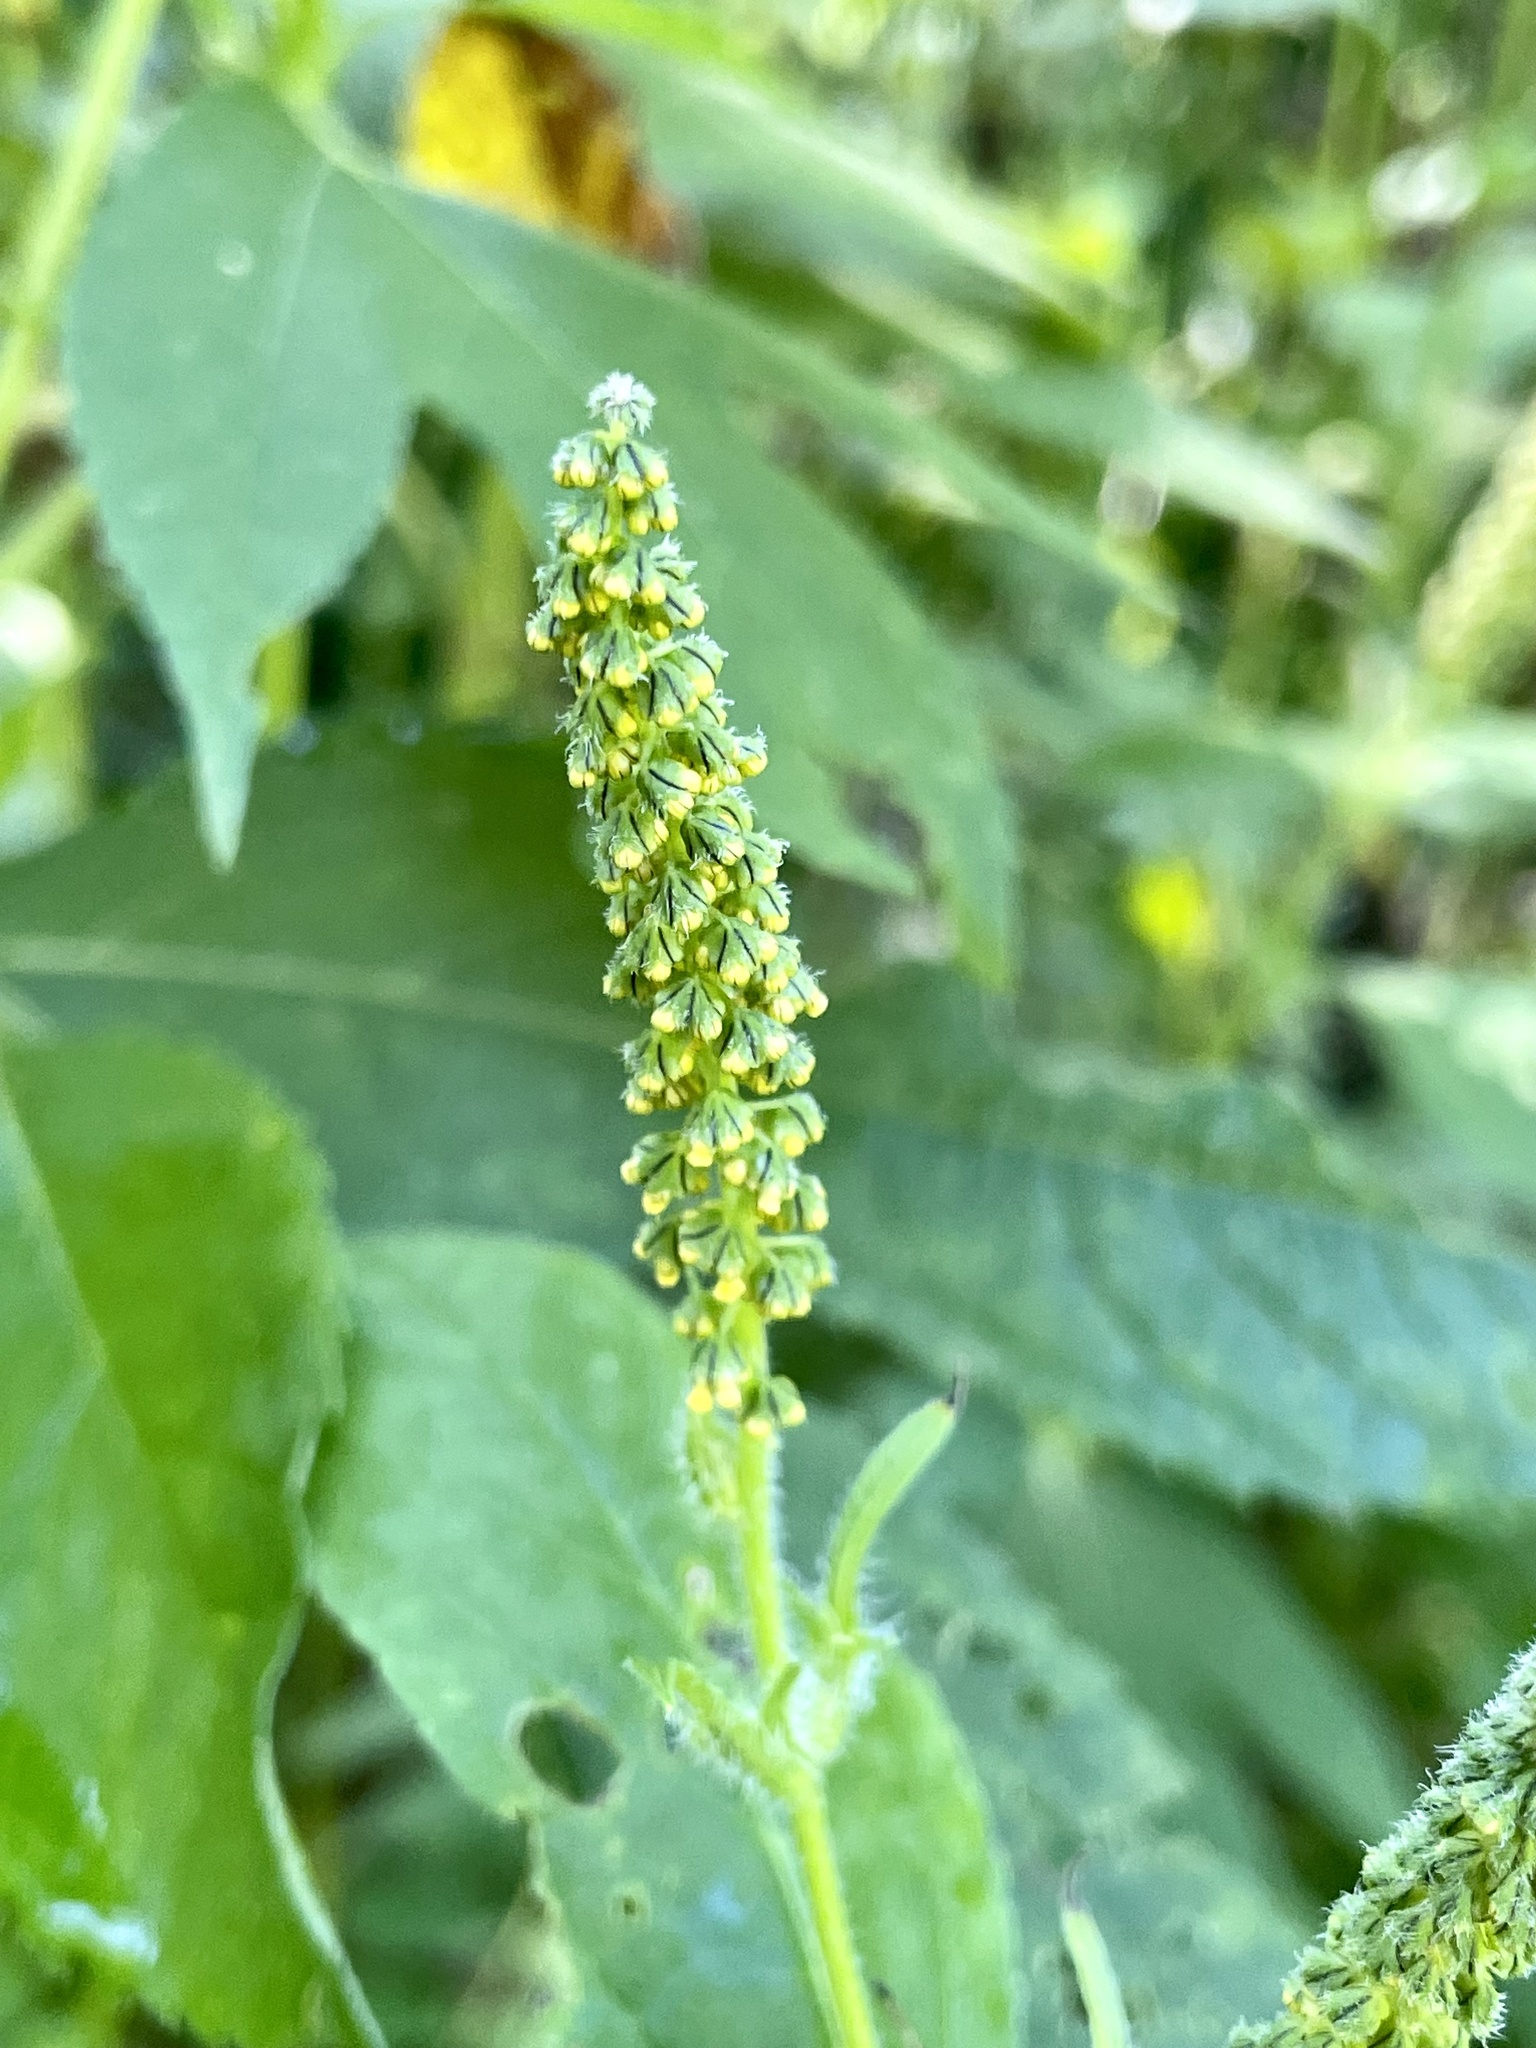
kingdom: Plantae
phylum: Tracheophyta
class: Magnoliopsida
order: Asterales
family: Asteraceae
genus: Ambrosia
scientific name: Ambrosia trifida
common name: Giant ragweed
